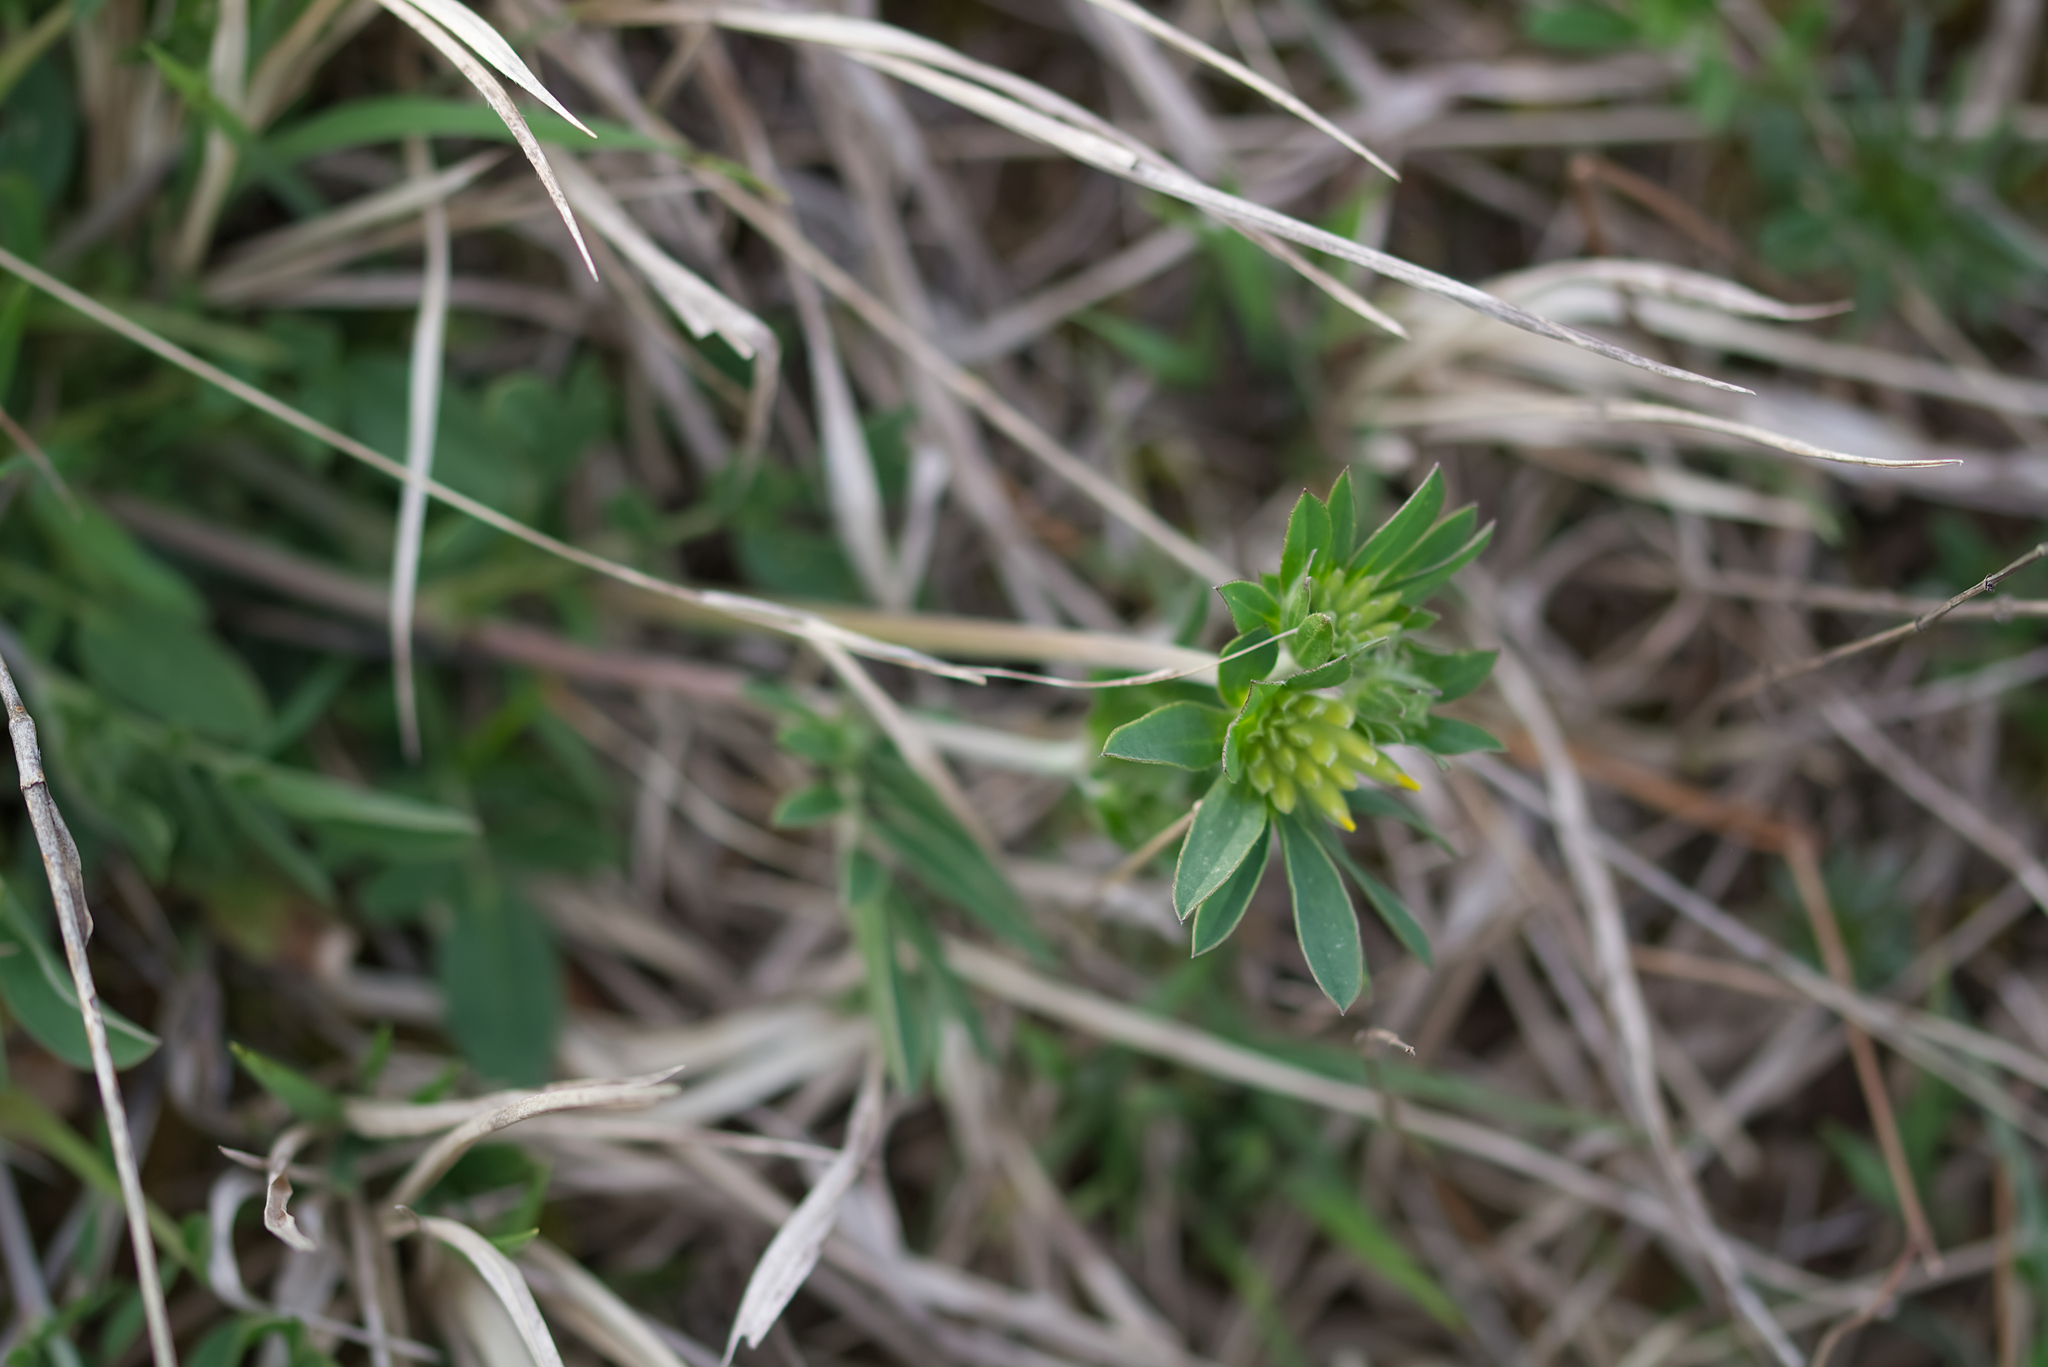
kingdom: Plantae
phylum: Tracheophyta
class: Magnoliopsida
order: Fabales
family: Fabaceae
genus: Anthyllis
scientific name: Anthyllis vulneraria
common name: Kidney vetch
